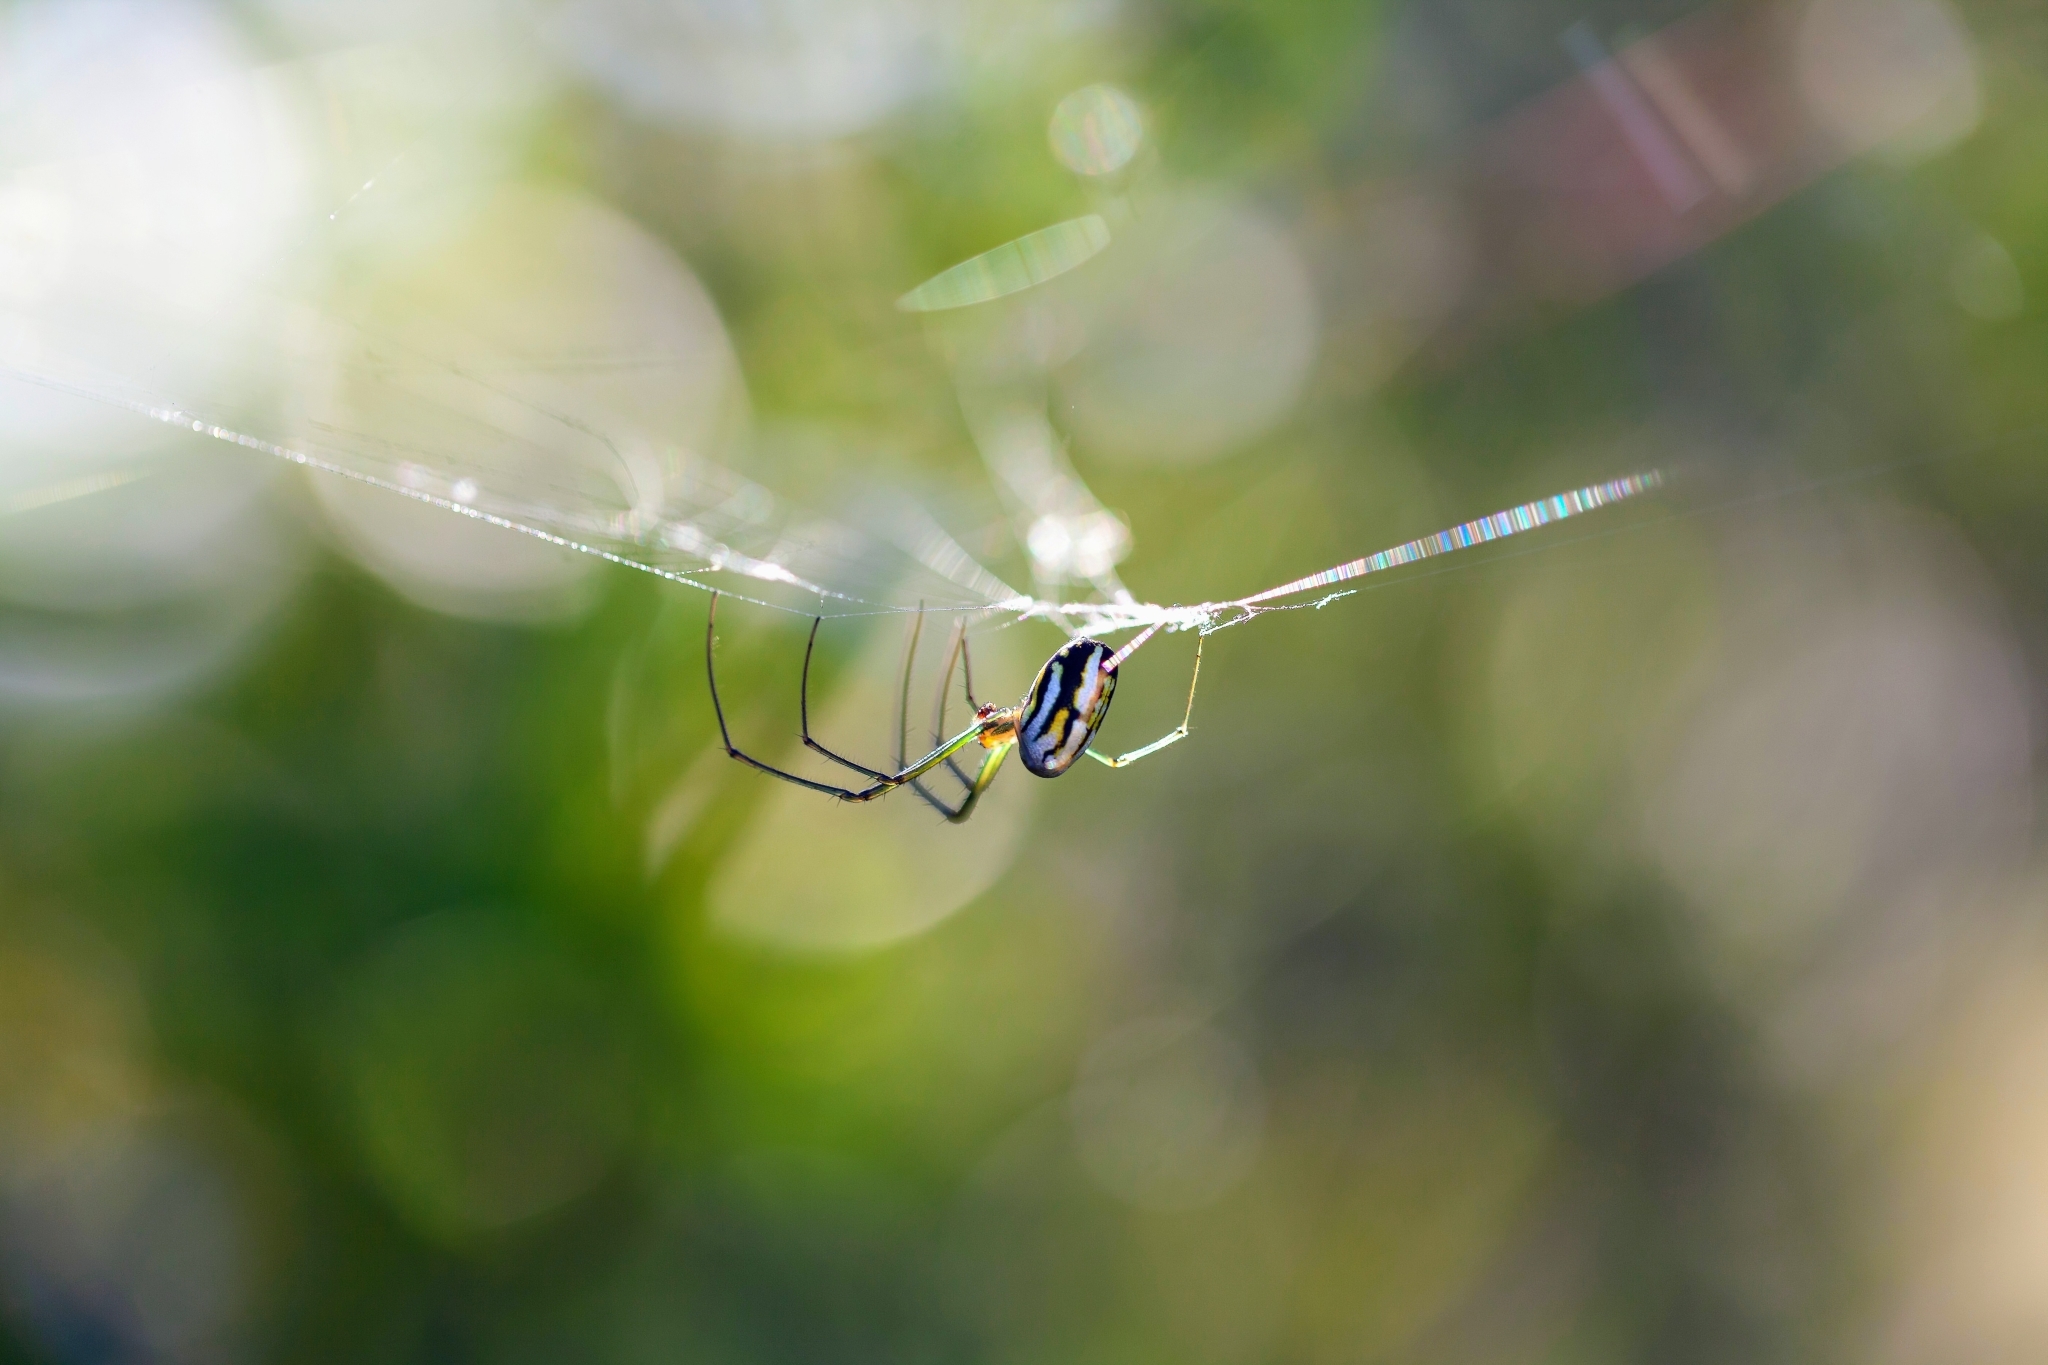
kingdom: Animalia
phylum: Arthropoda
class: Arachnida
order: Araneae
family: Tetragnathidae
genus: Leucauge
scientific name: Leucauge argyra
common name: Longjawed orb weavers
